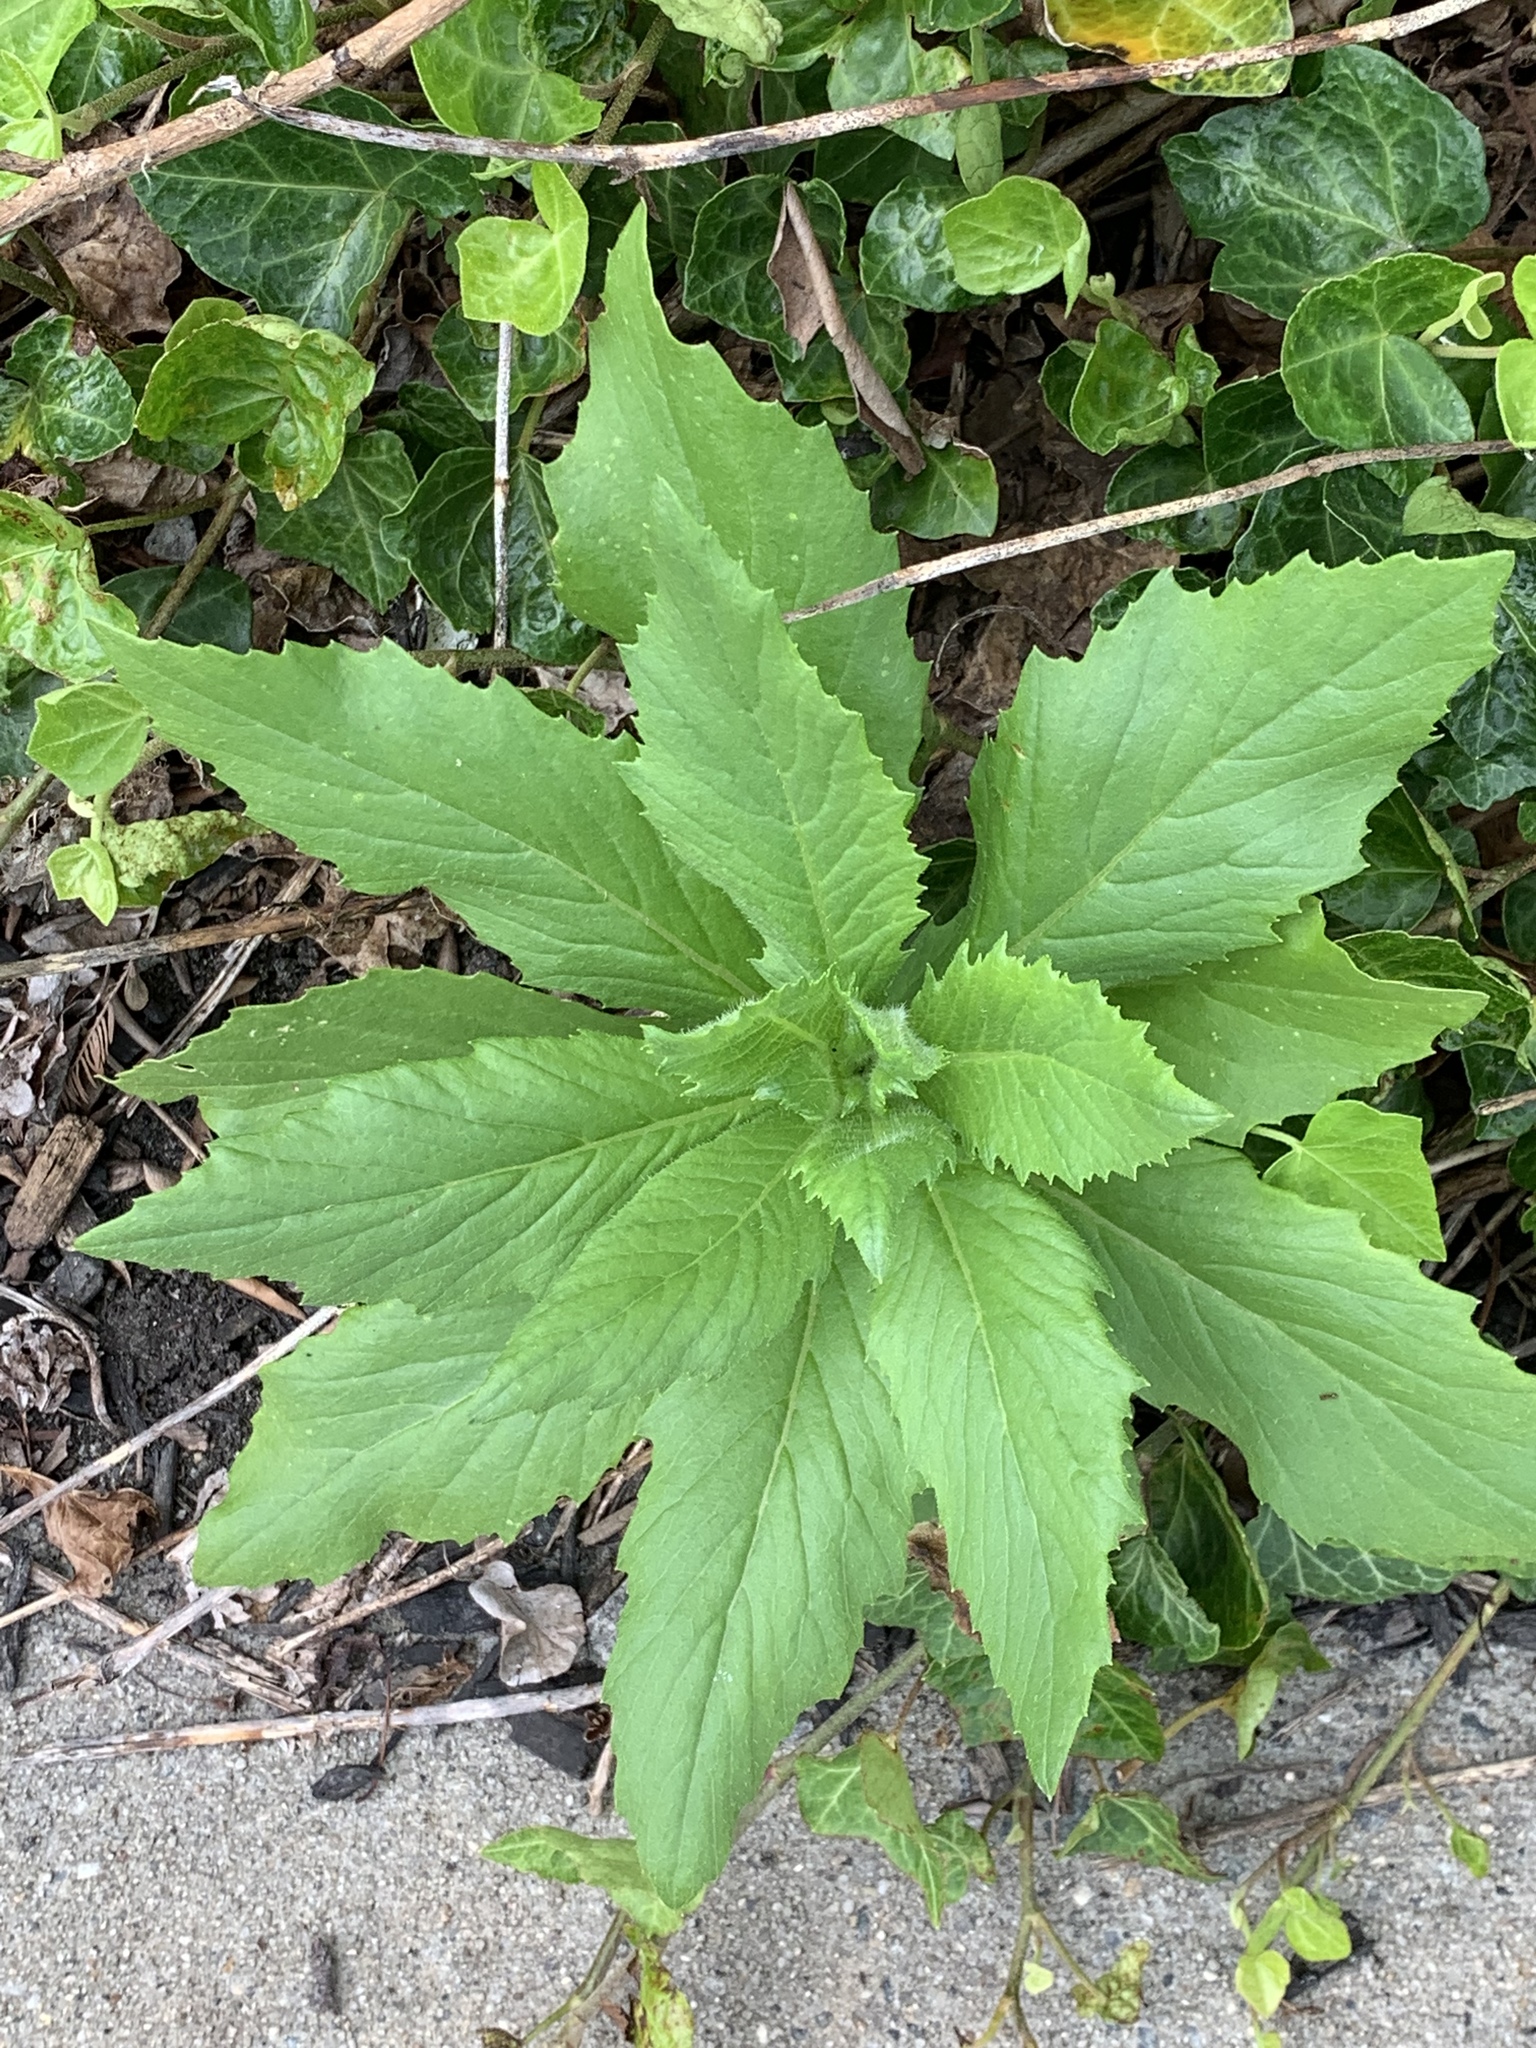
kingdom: Plantae
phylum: Tracheophyta
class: Magnoliopsida
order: Asterales
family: Asteraceae
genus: Erechtites
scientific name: Erechtites hieraciifolius
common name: American burnweed
